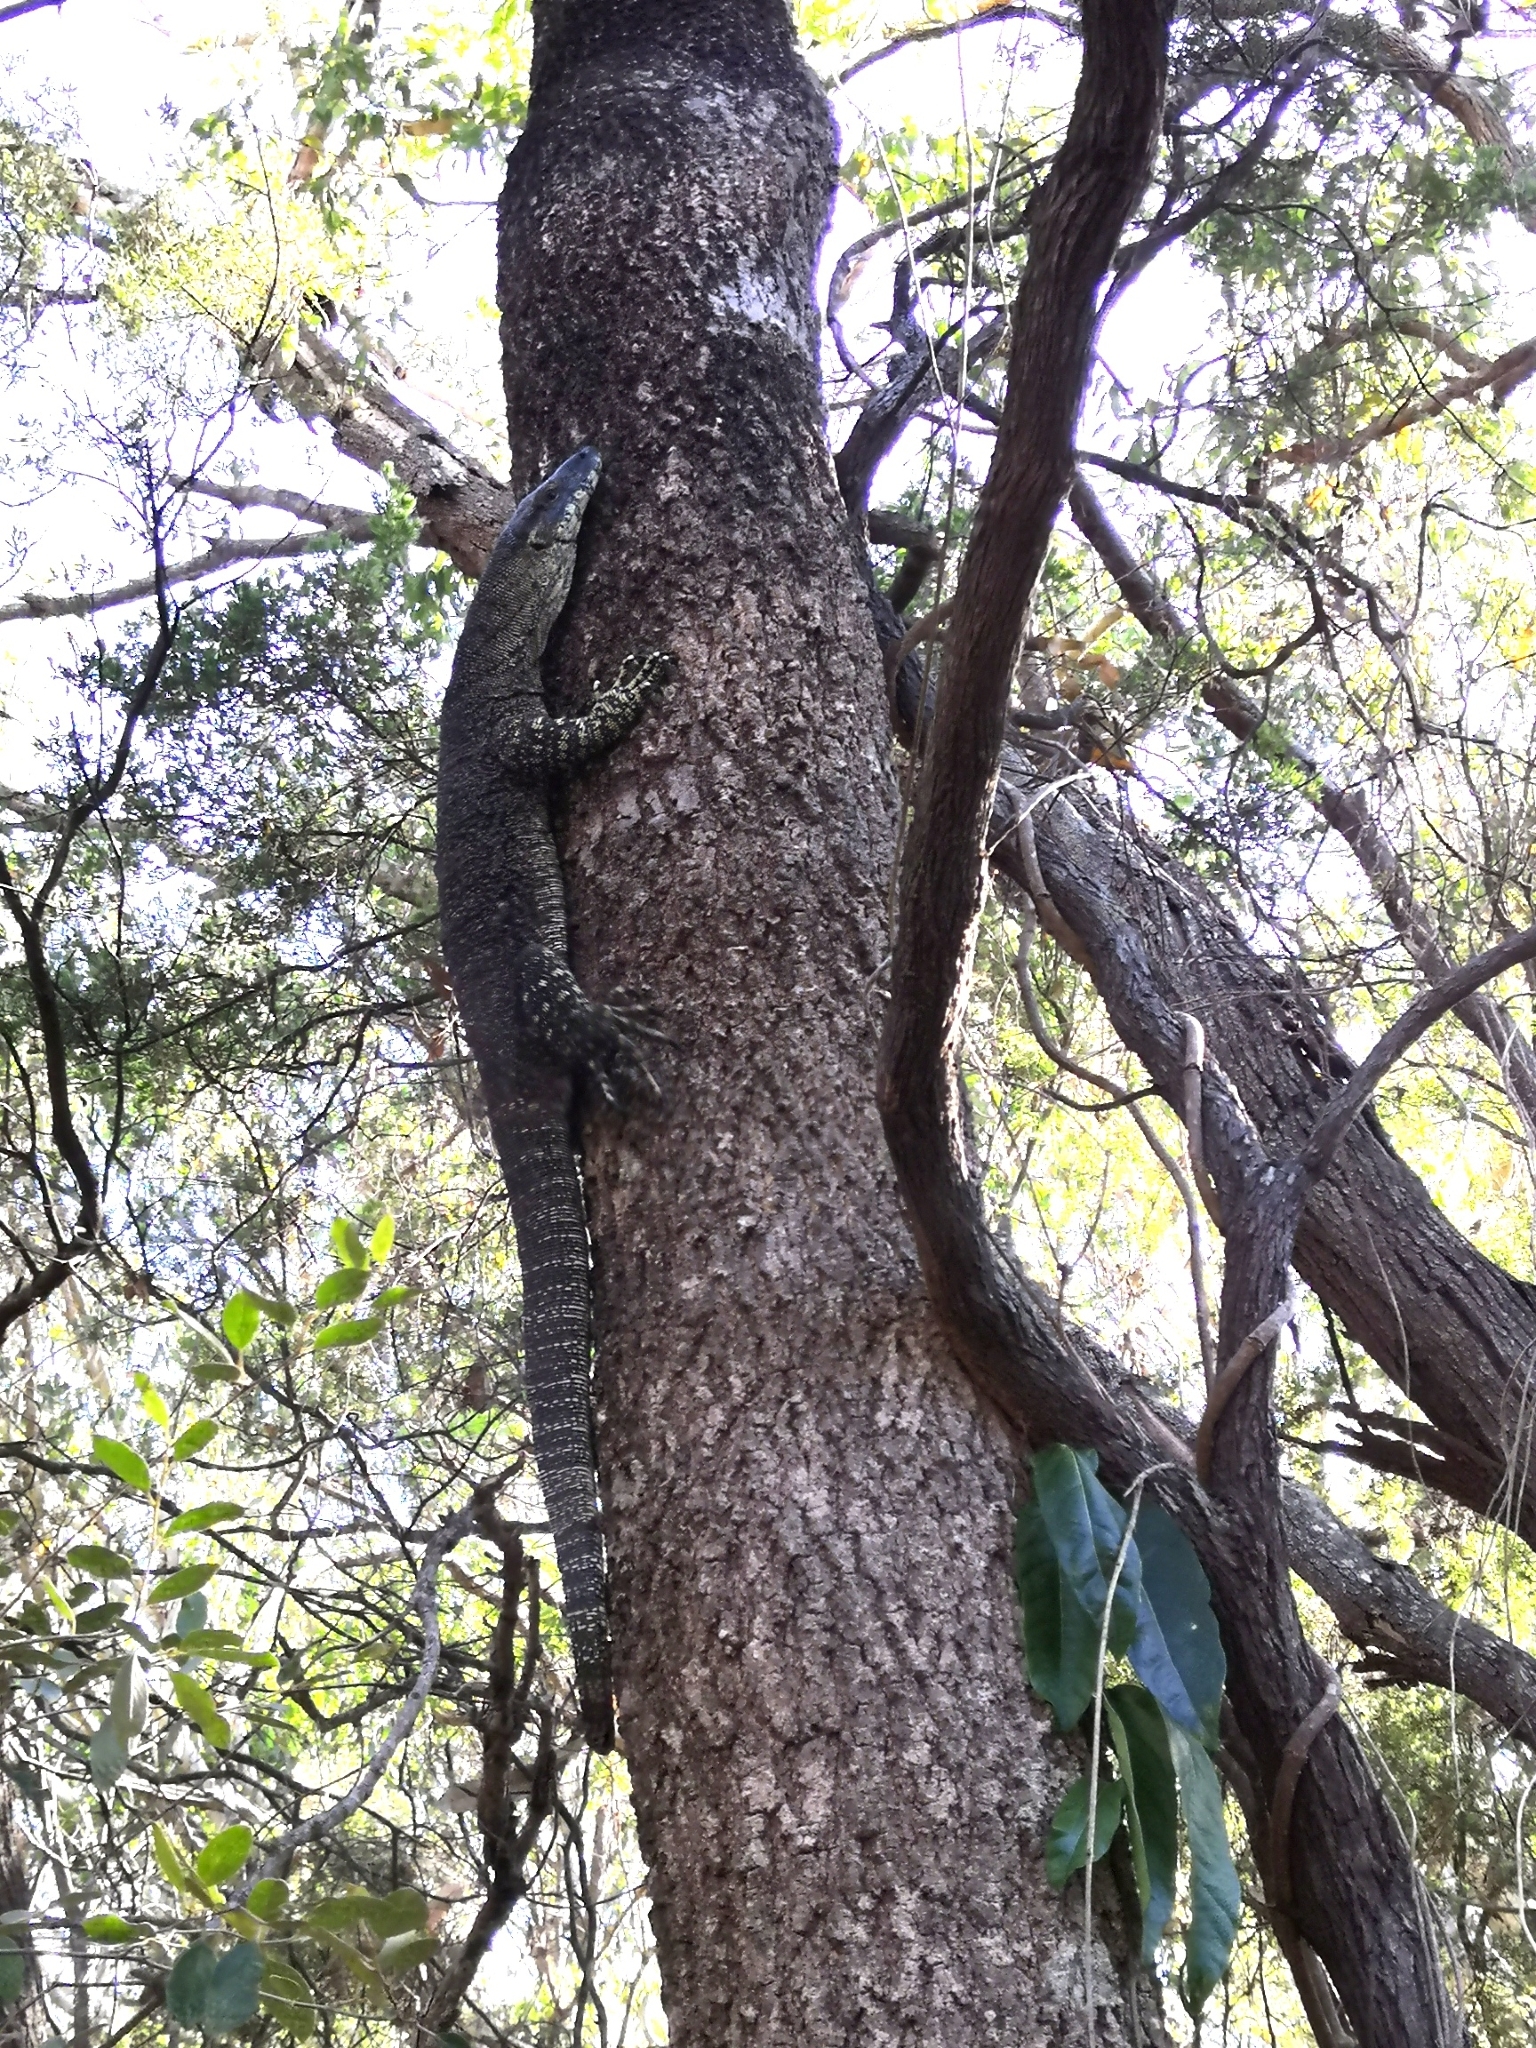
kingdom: Animalia
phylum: Chordata
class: Squamata
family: Varanidae
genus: Varanus
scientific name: Varanus varius
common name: Lace monitor
